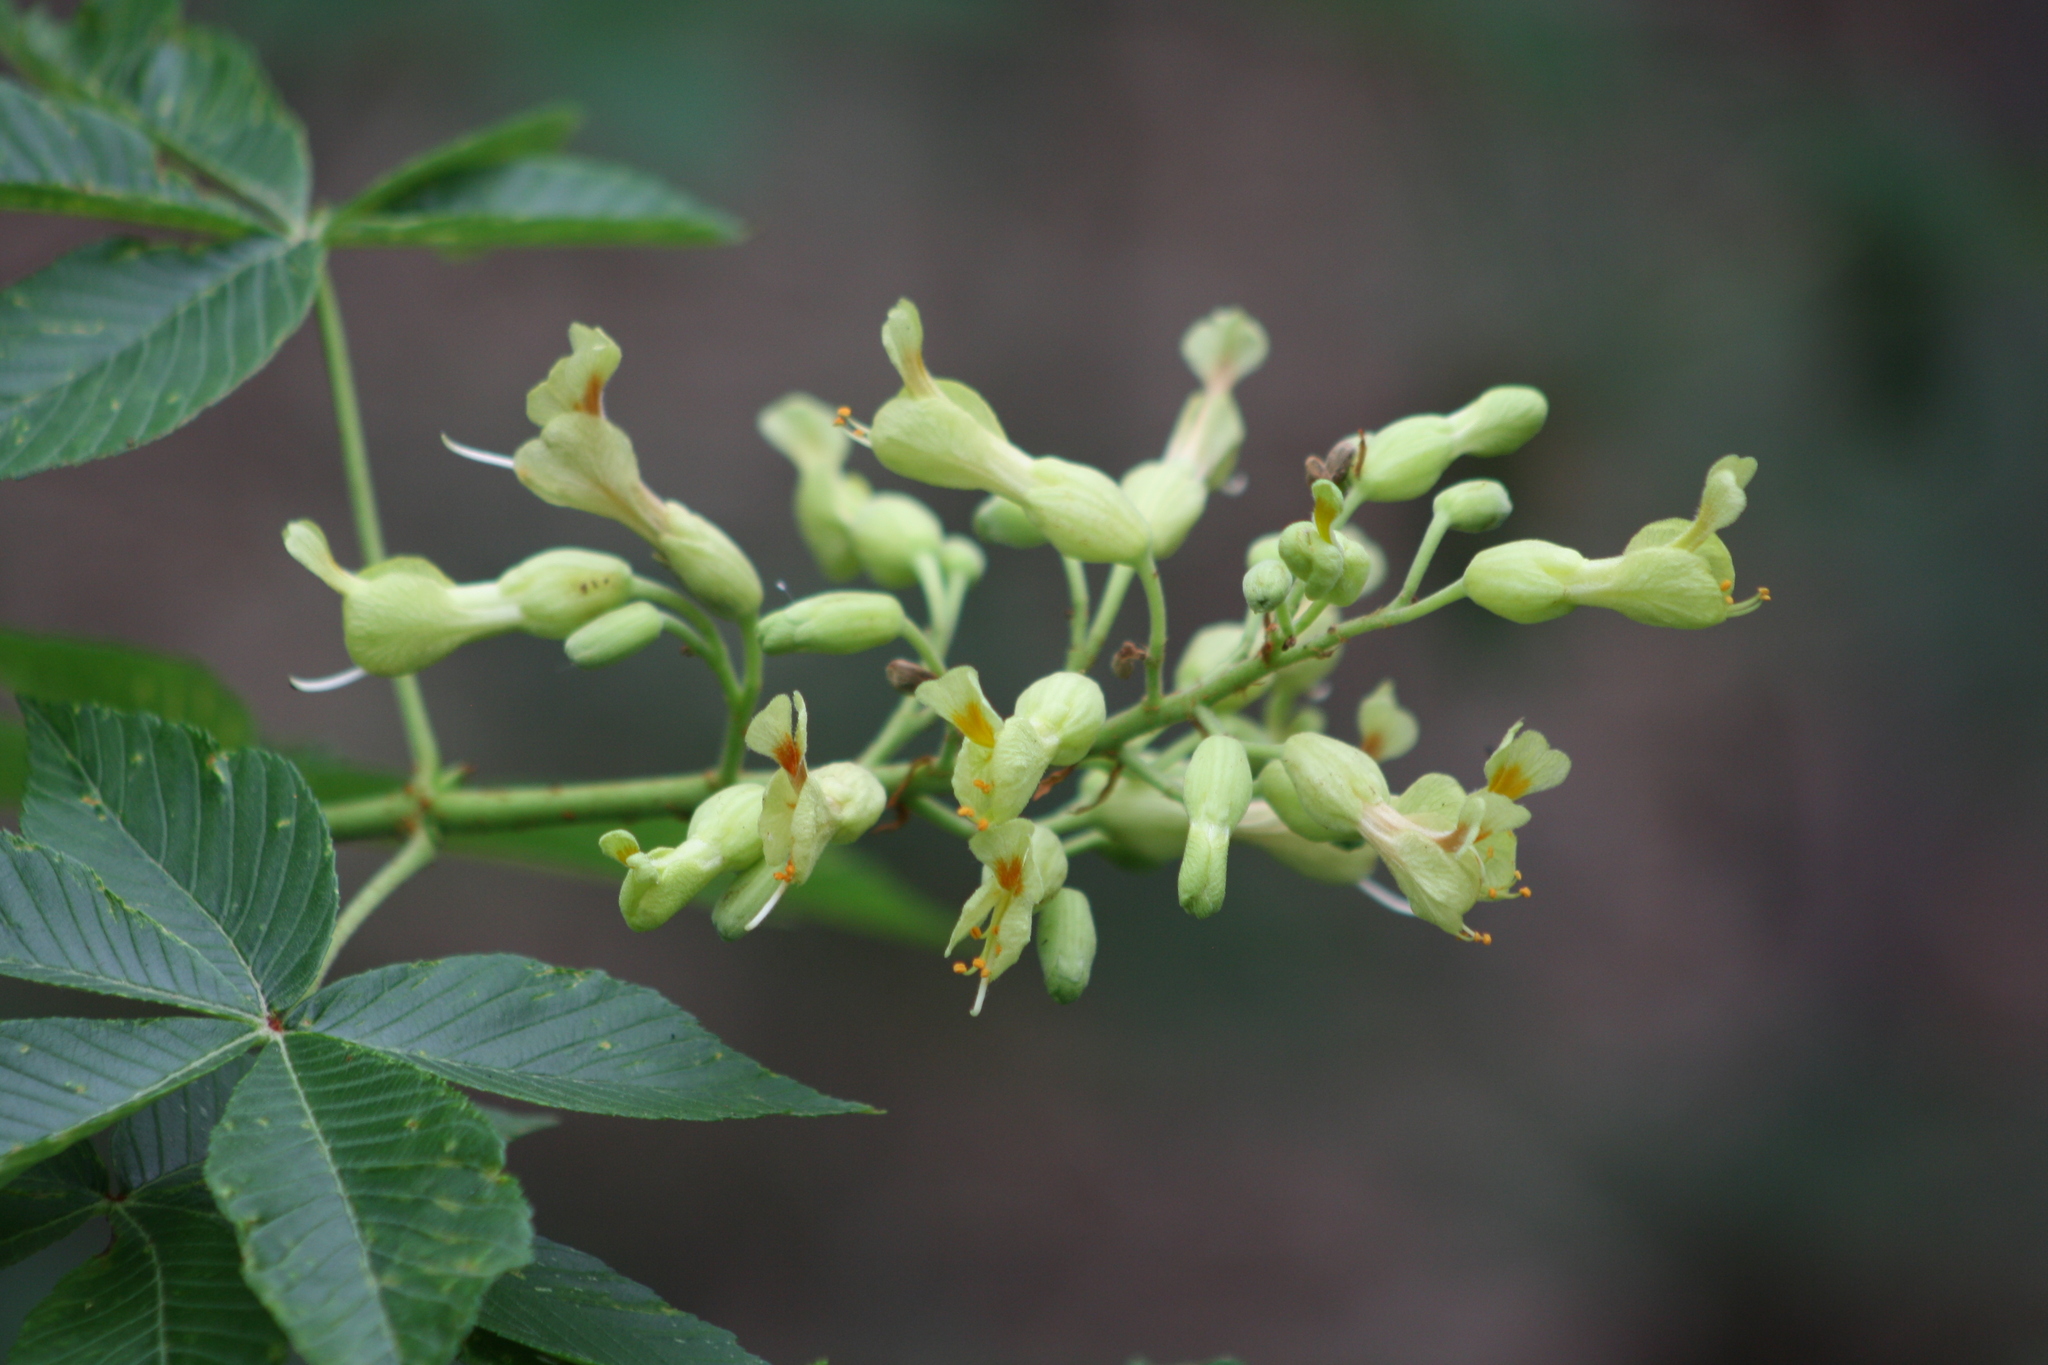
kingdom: Plantae
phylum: Tracheophyta
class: Magnoliopsida
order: Sapindales
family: Sapindaceae
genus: Aesculus
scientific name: Aesculus pavia
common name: Red buckeye
